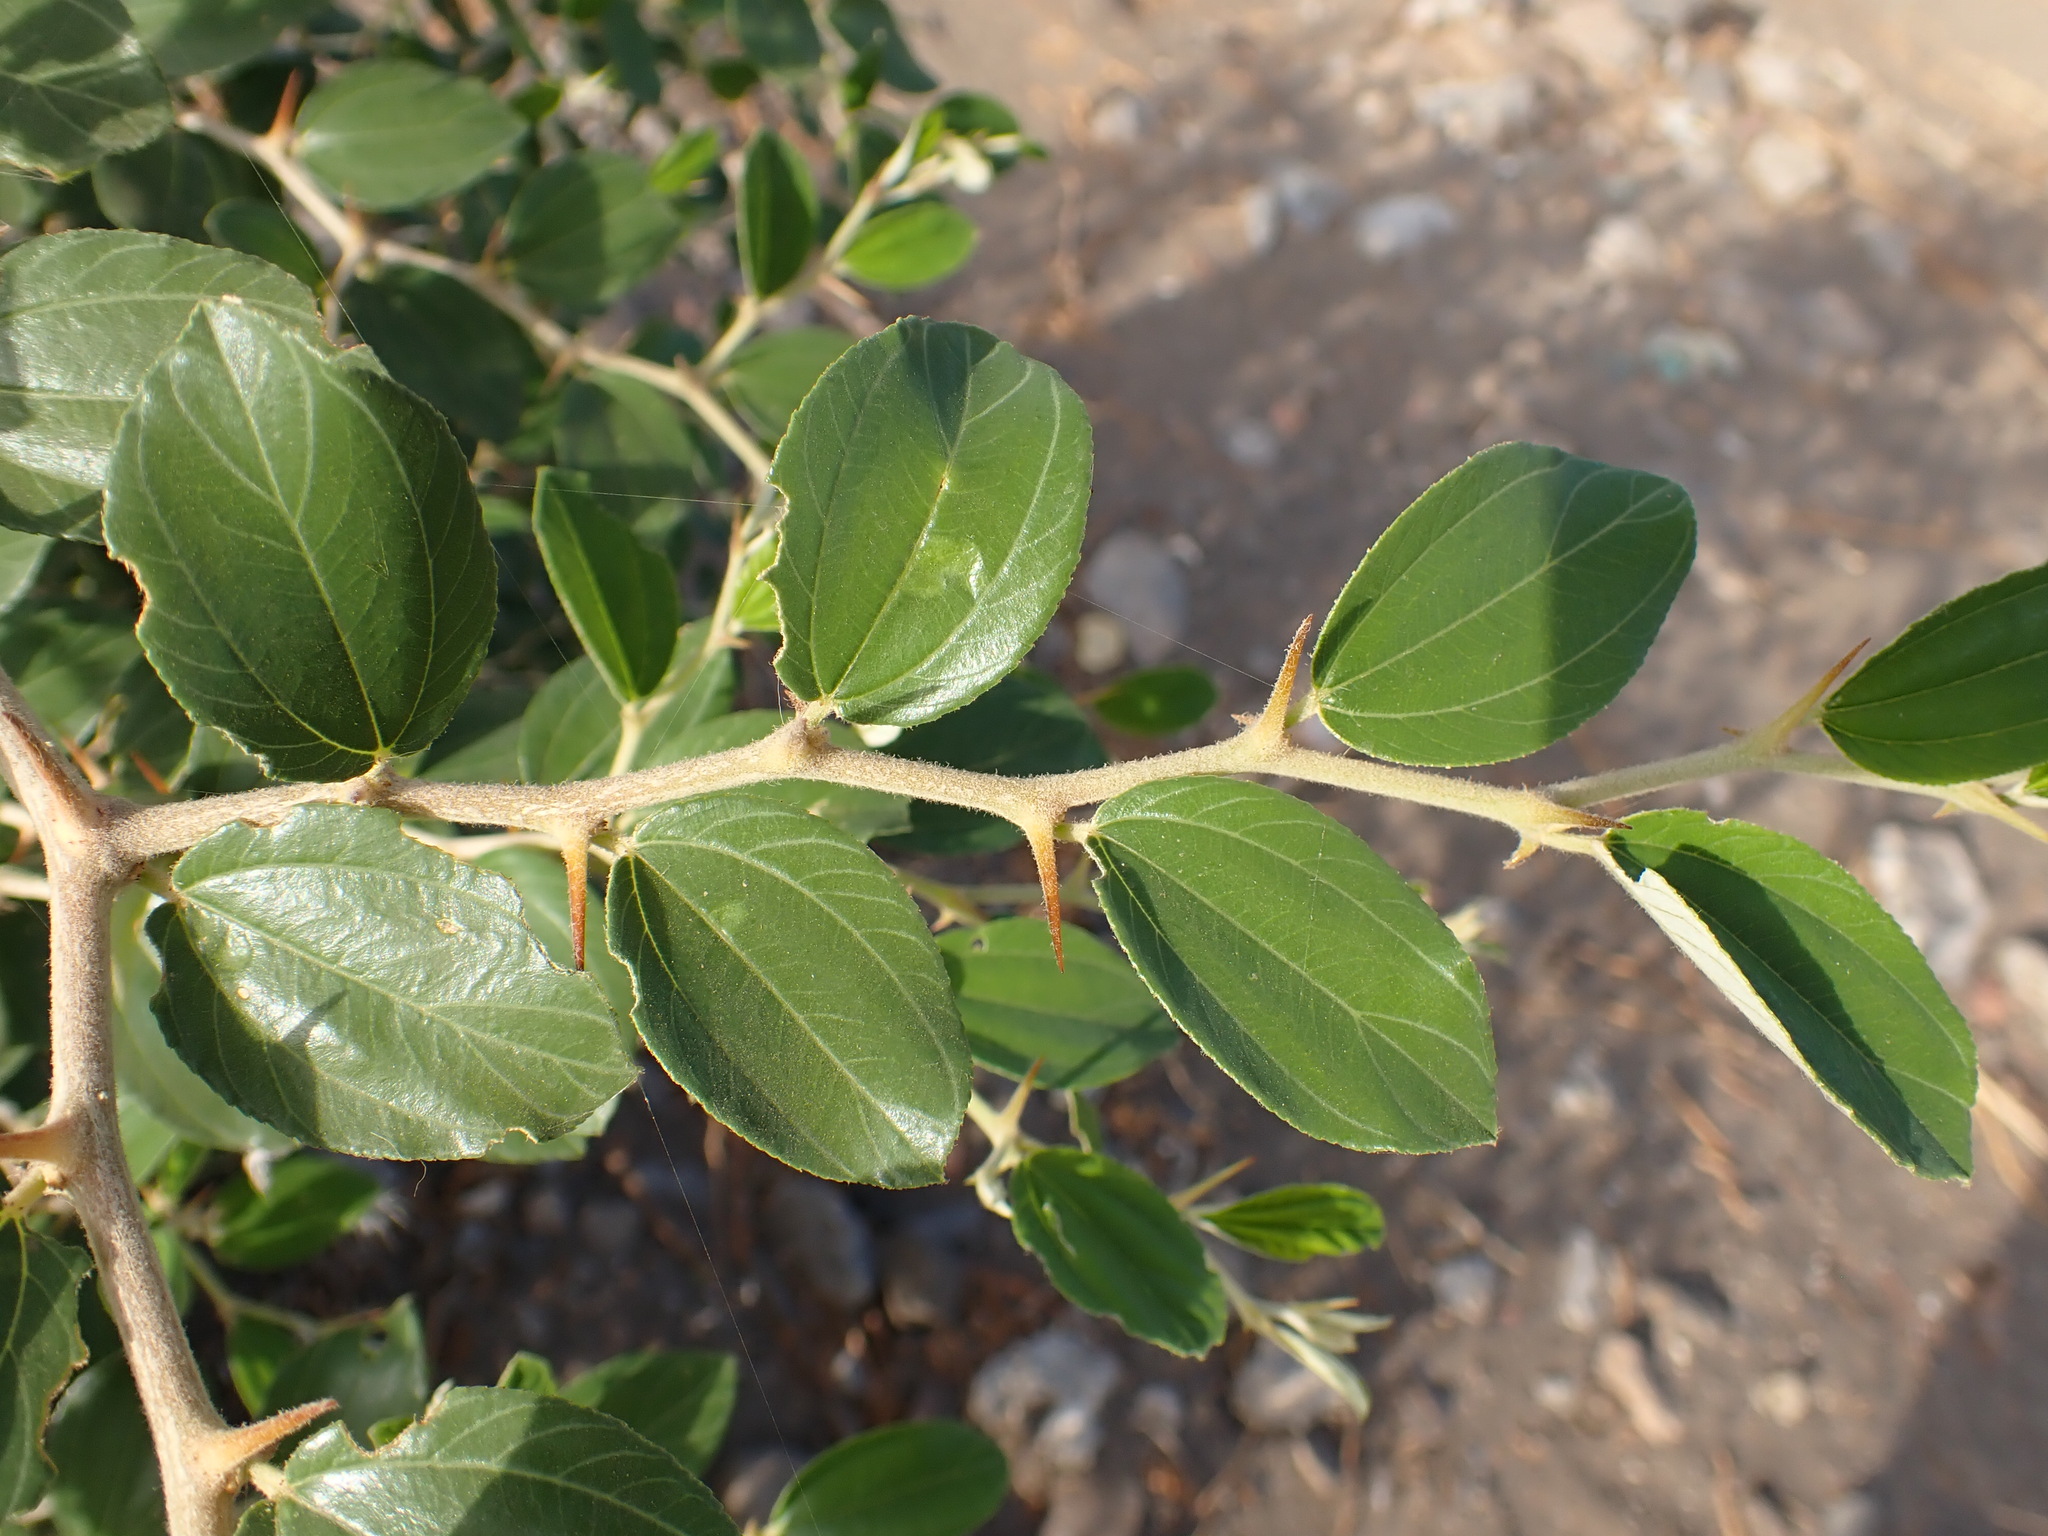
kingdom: Plantae
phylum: Tracheophyta
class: Magnoliopsida
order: Rosales
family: Rhamnaceae
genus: Ziziphus
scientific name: Ziziphus mauritiana
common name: Indian jujube
